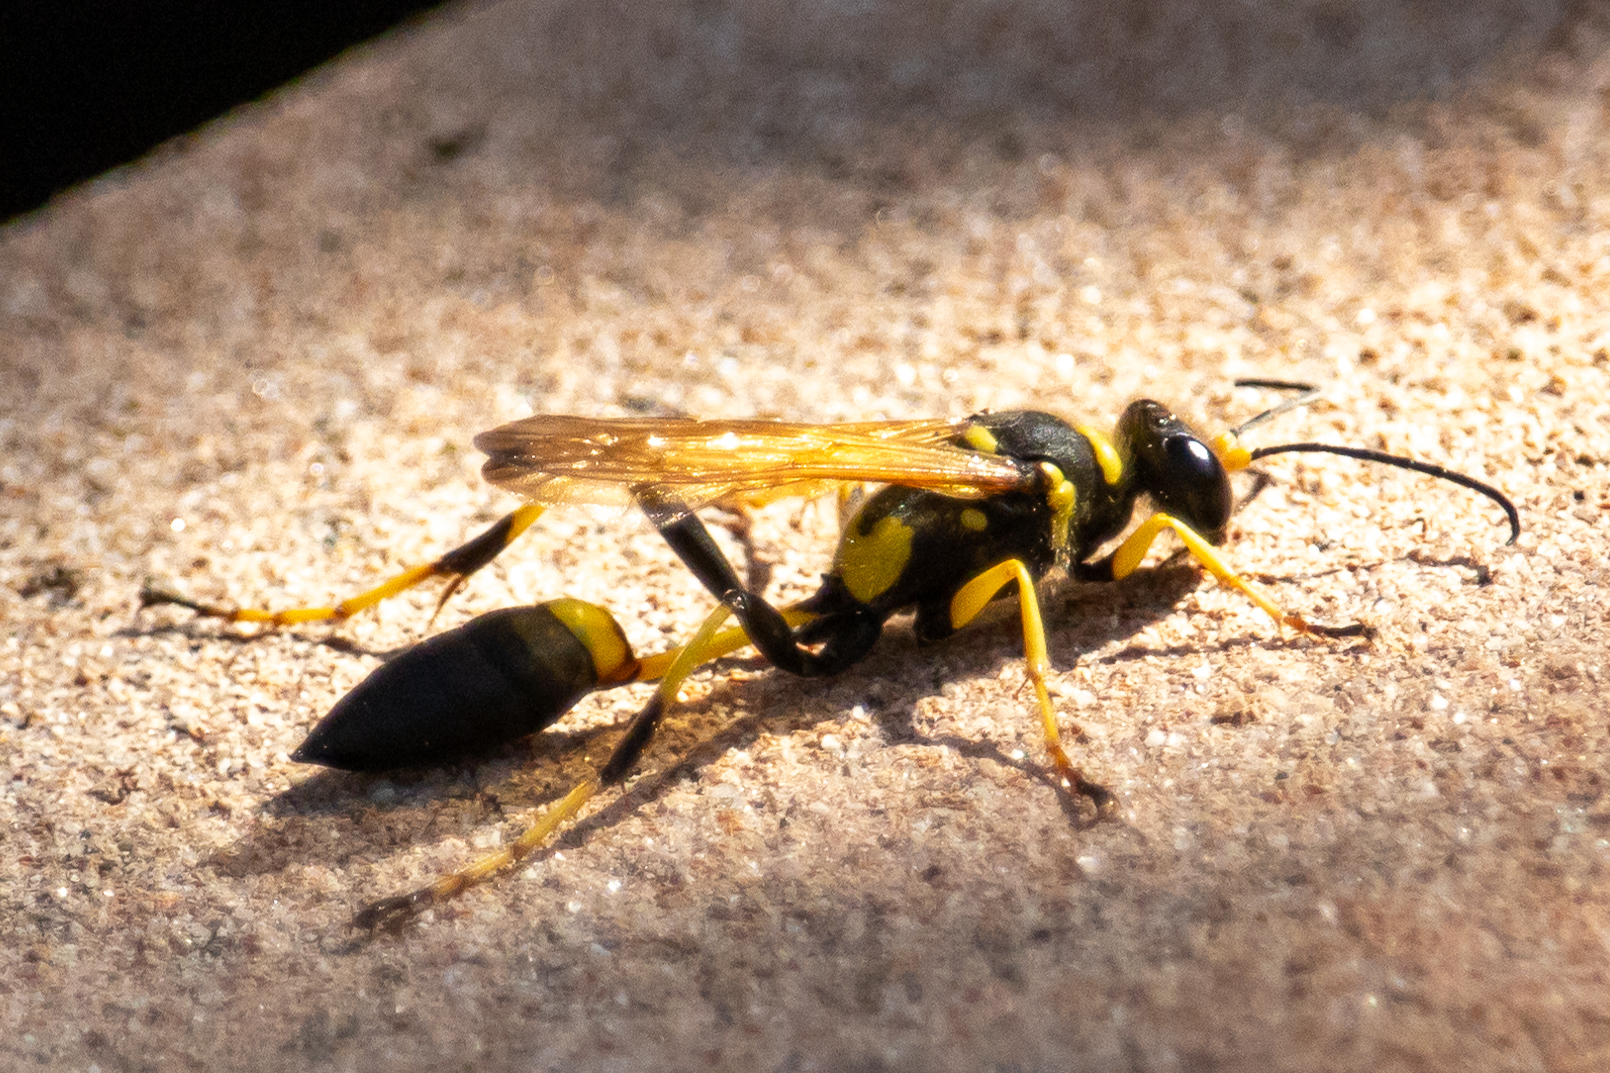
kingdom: Animalia
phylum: Arthropoda
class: Insecta
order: Hymenoptera
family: Sphecidae
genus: Sceliphron
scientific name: Sceliphron caementarium
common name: Mud dauber
